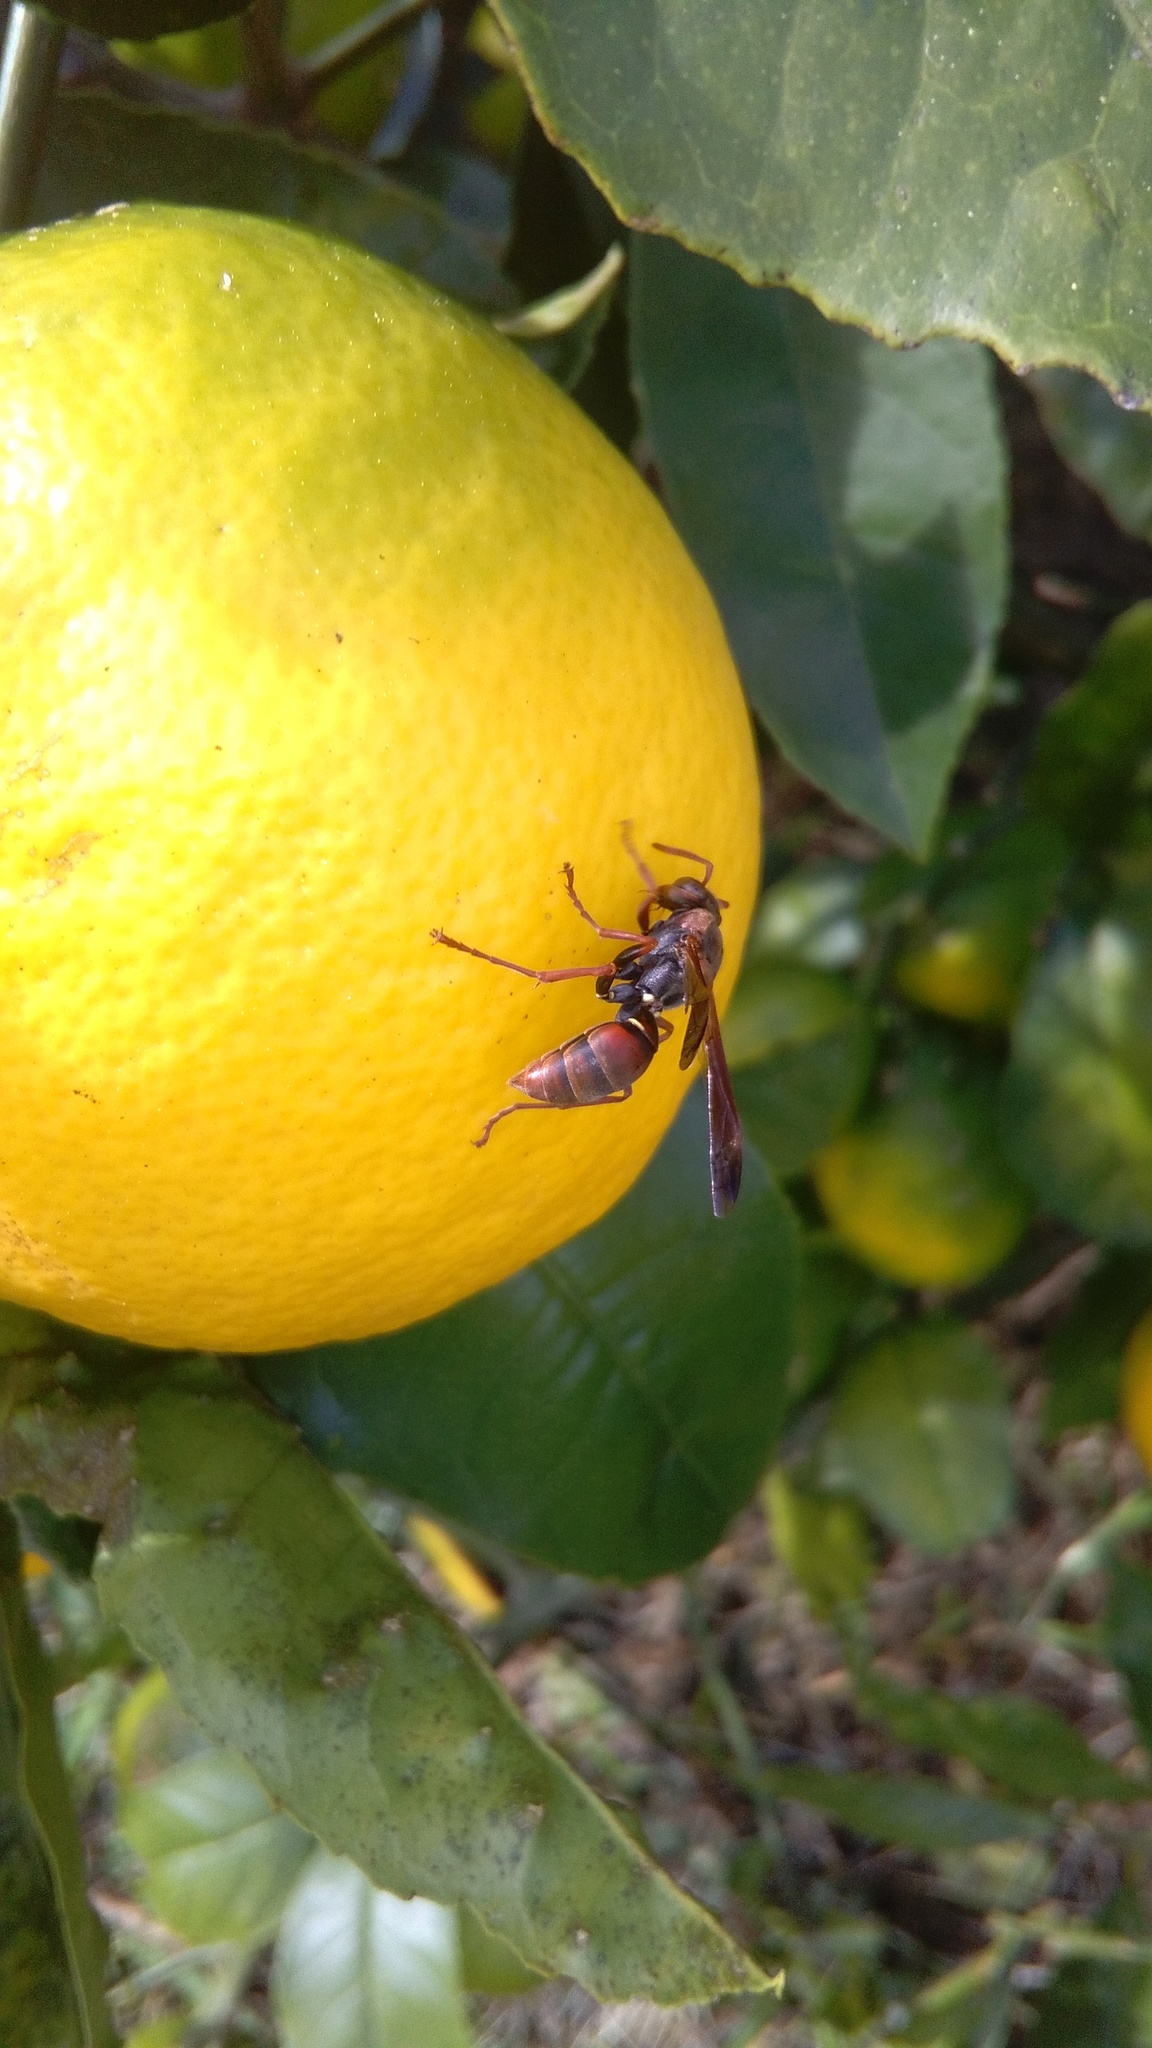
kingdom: Animalia
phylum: Arthropoda
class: Insecta
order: Hymenoptera
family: Eumenidae
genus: Polistes
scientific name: Polistes humilis
